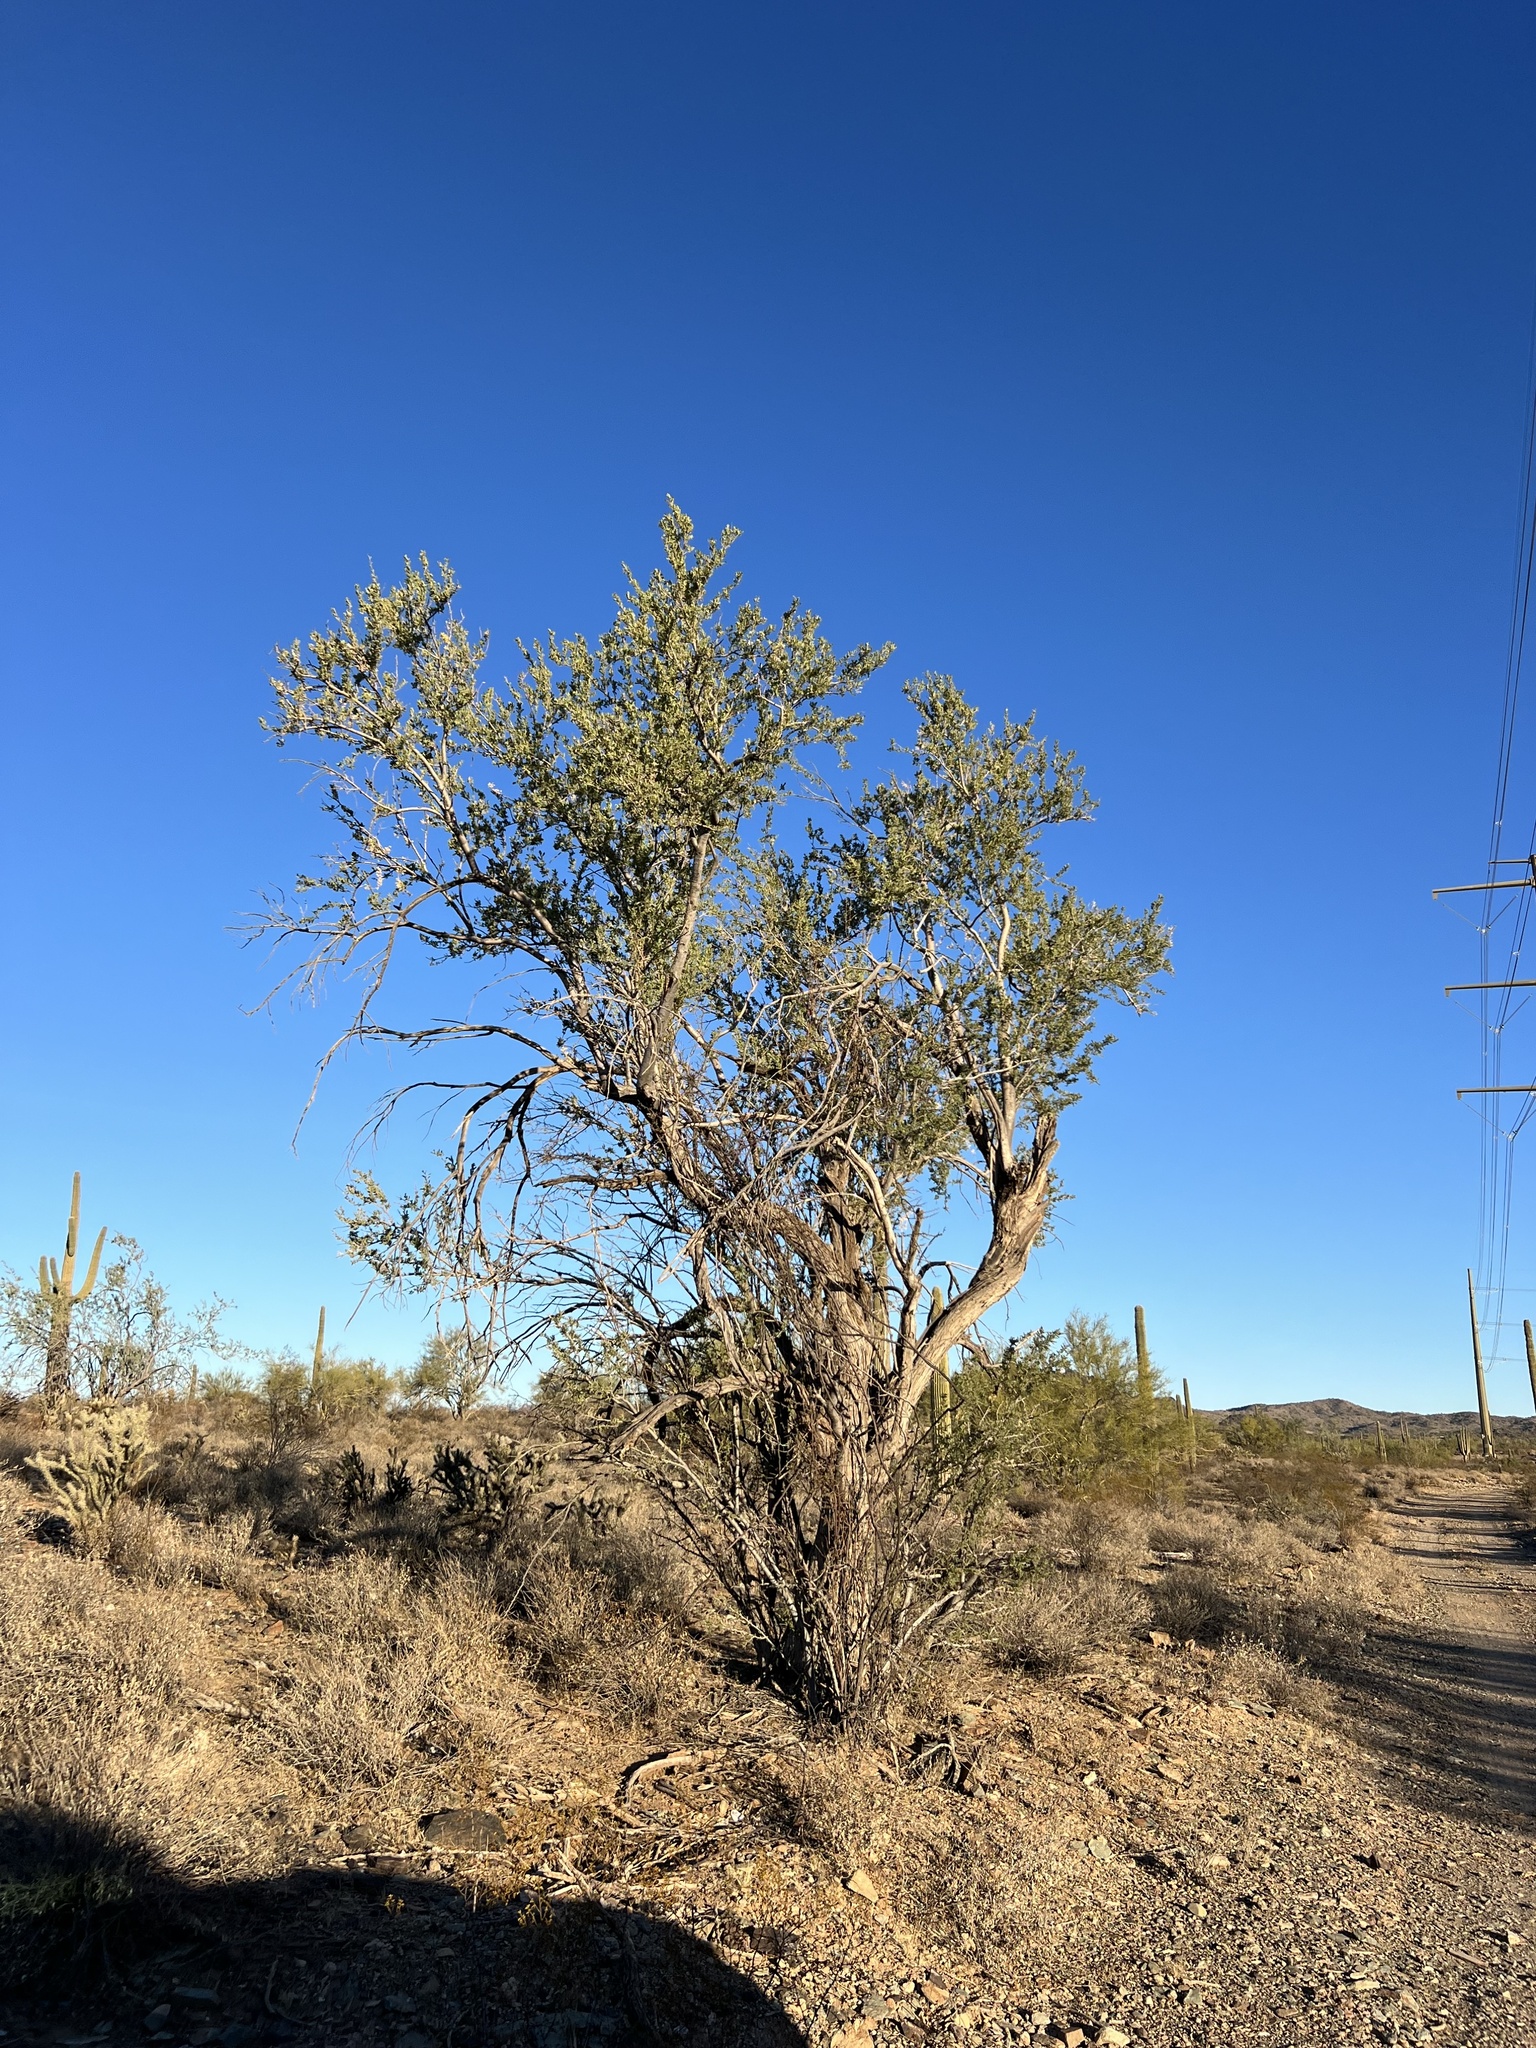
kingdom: Plantae
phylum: Tracheophyta
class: Magnoliopsida
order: Fabales
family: Fabaceae
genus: Olneya
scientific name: Olneya tesota
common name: Desert ironwood
